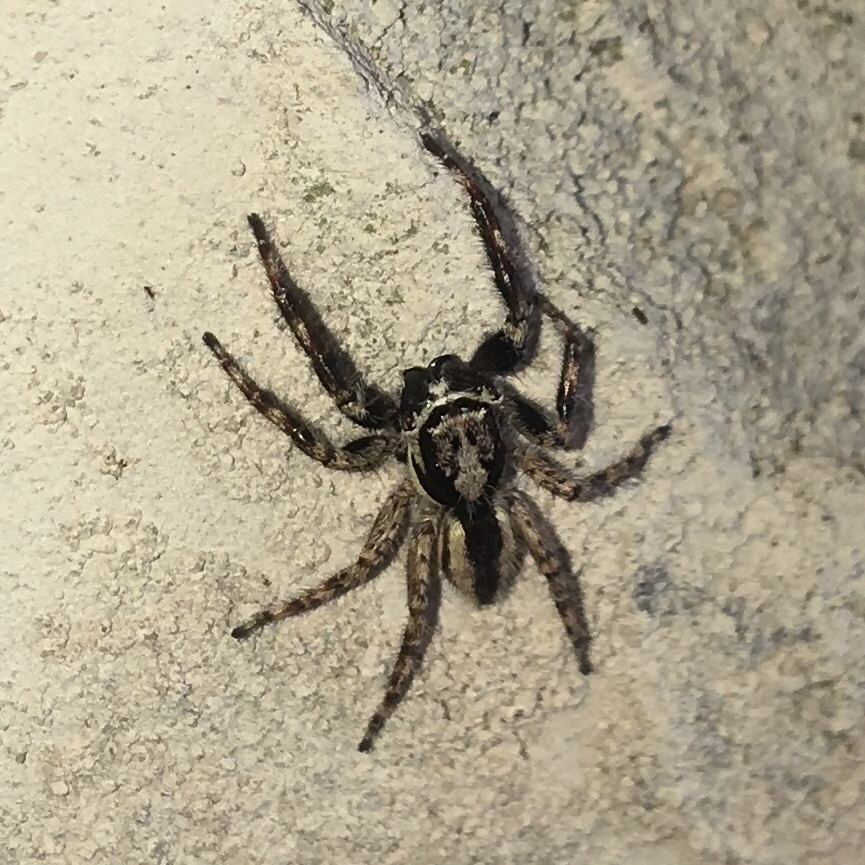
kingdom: Animalia
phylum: Arthropoda
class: Arachnida
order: Araneae
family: Salticidae
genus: Menemerus
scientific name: Menemerus bivittatus
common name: Gray wall jumper
